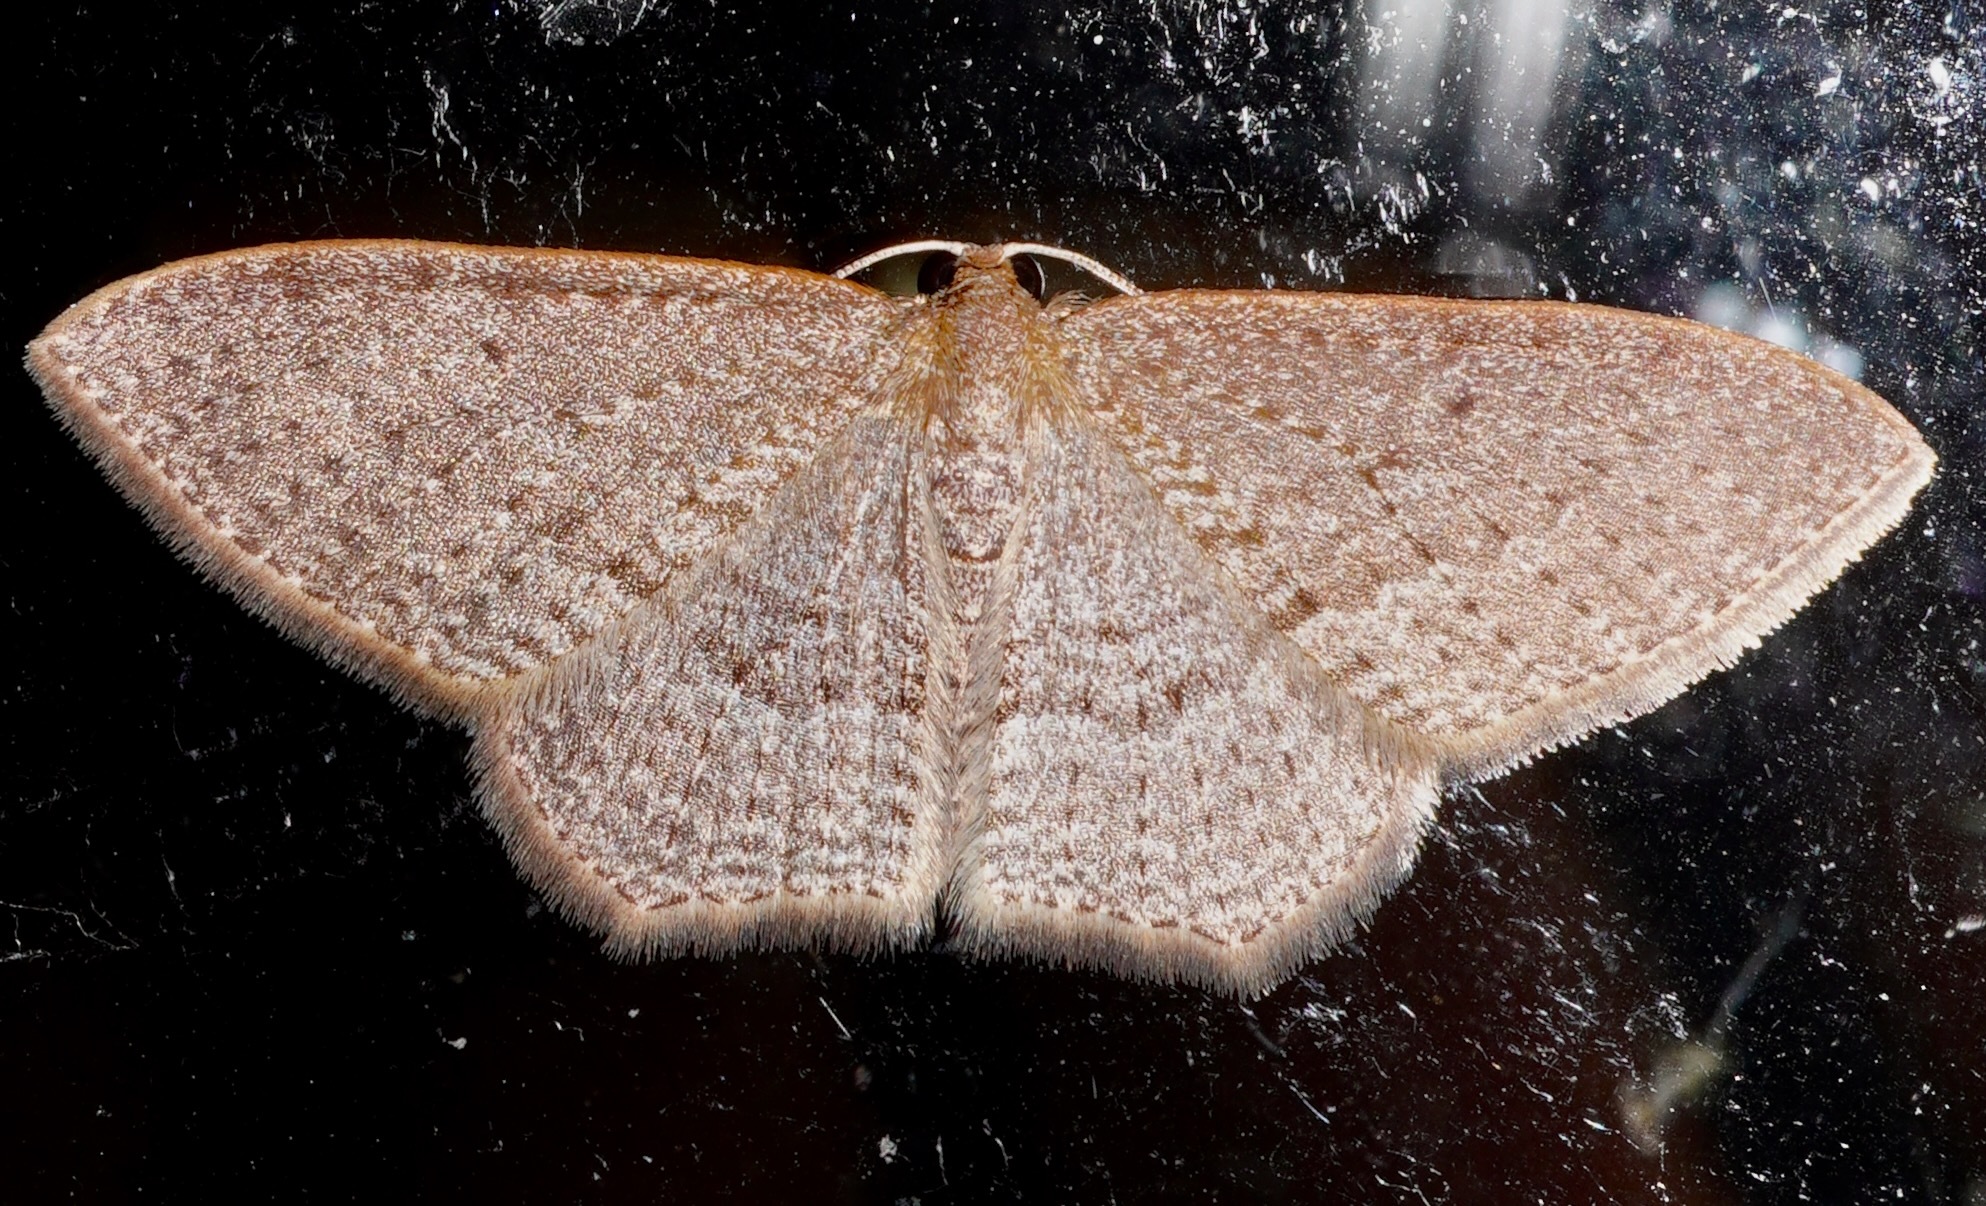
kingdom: Animalia
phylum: Arthropoda
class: Insecta
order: Lepidoptera
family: Geometridae
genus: Poecilasthena
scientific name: Poecilasthena subpurpureata
